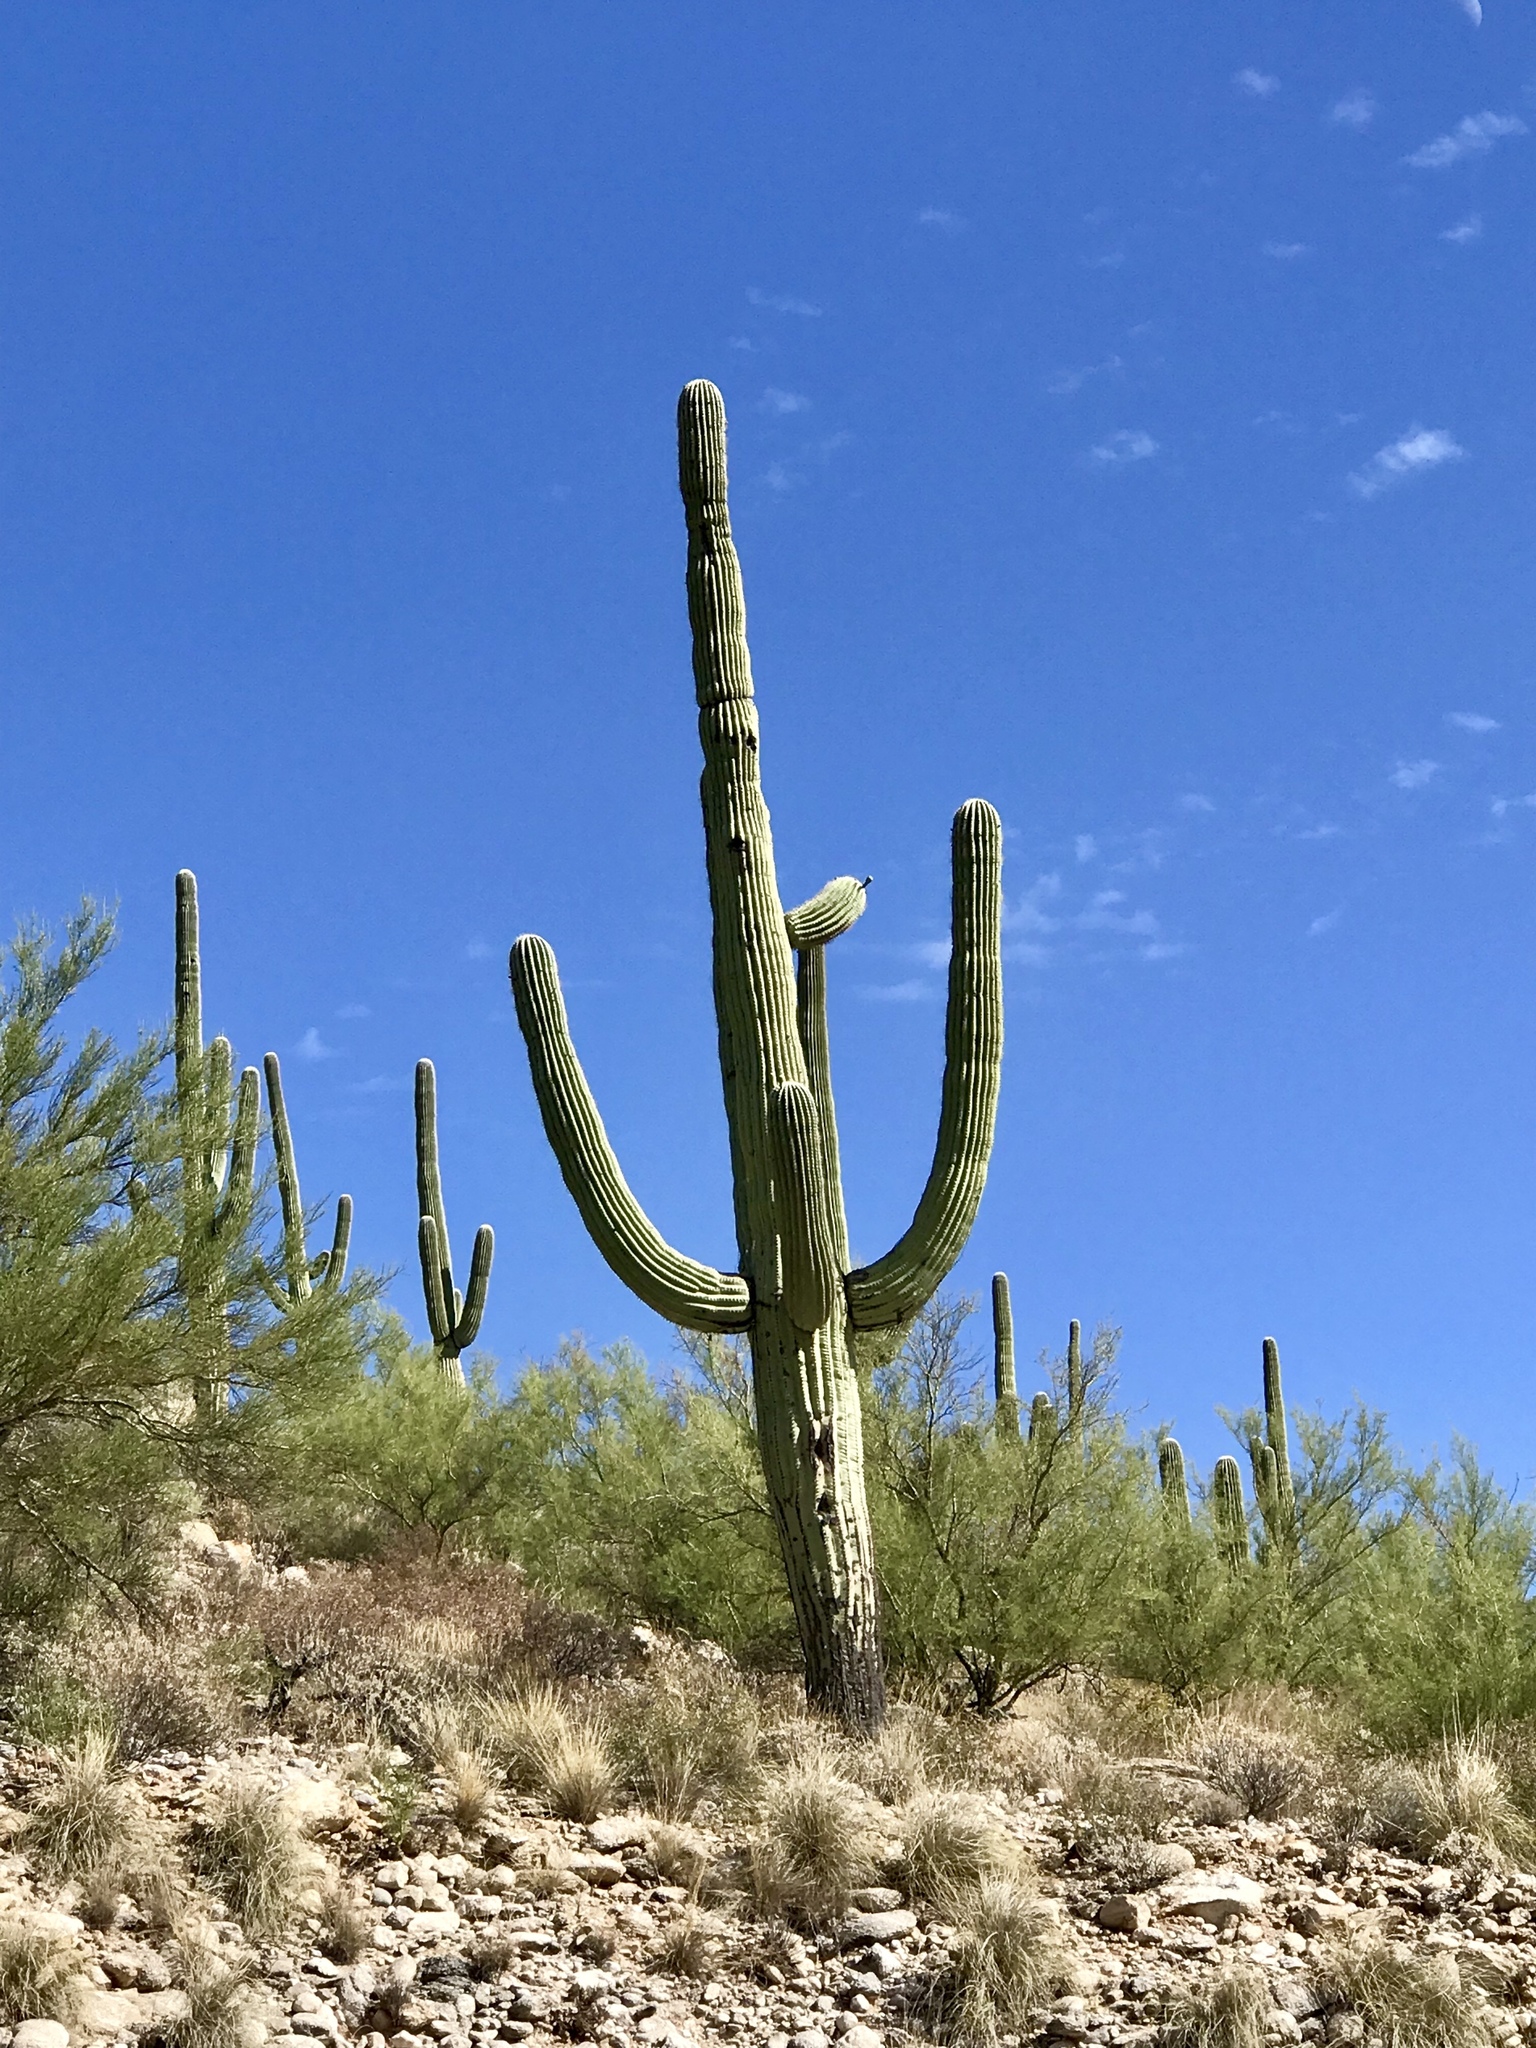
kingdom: Plantae
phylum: Tracheophyta
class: Magnoliopsida
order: Caryophyllales
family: Cactaceae
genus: Carnegiea
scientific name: Carnegiea gigantea
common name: Saguaro
